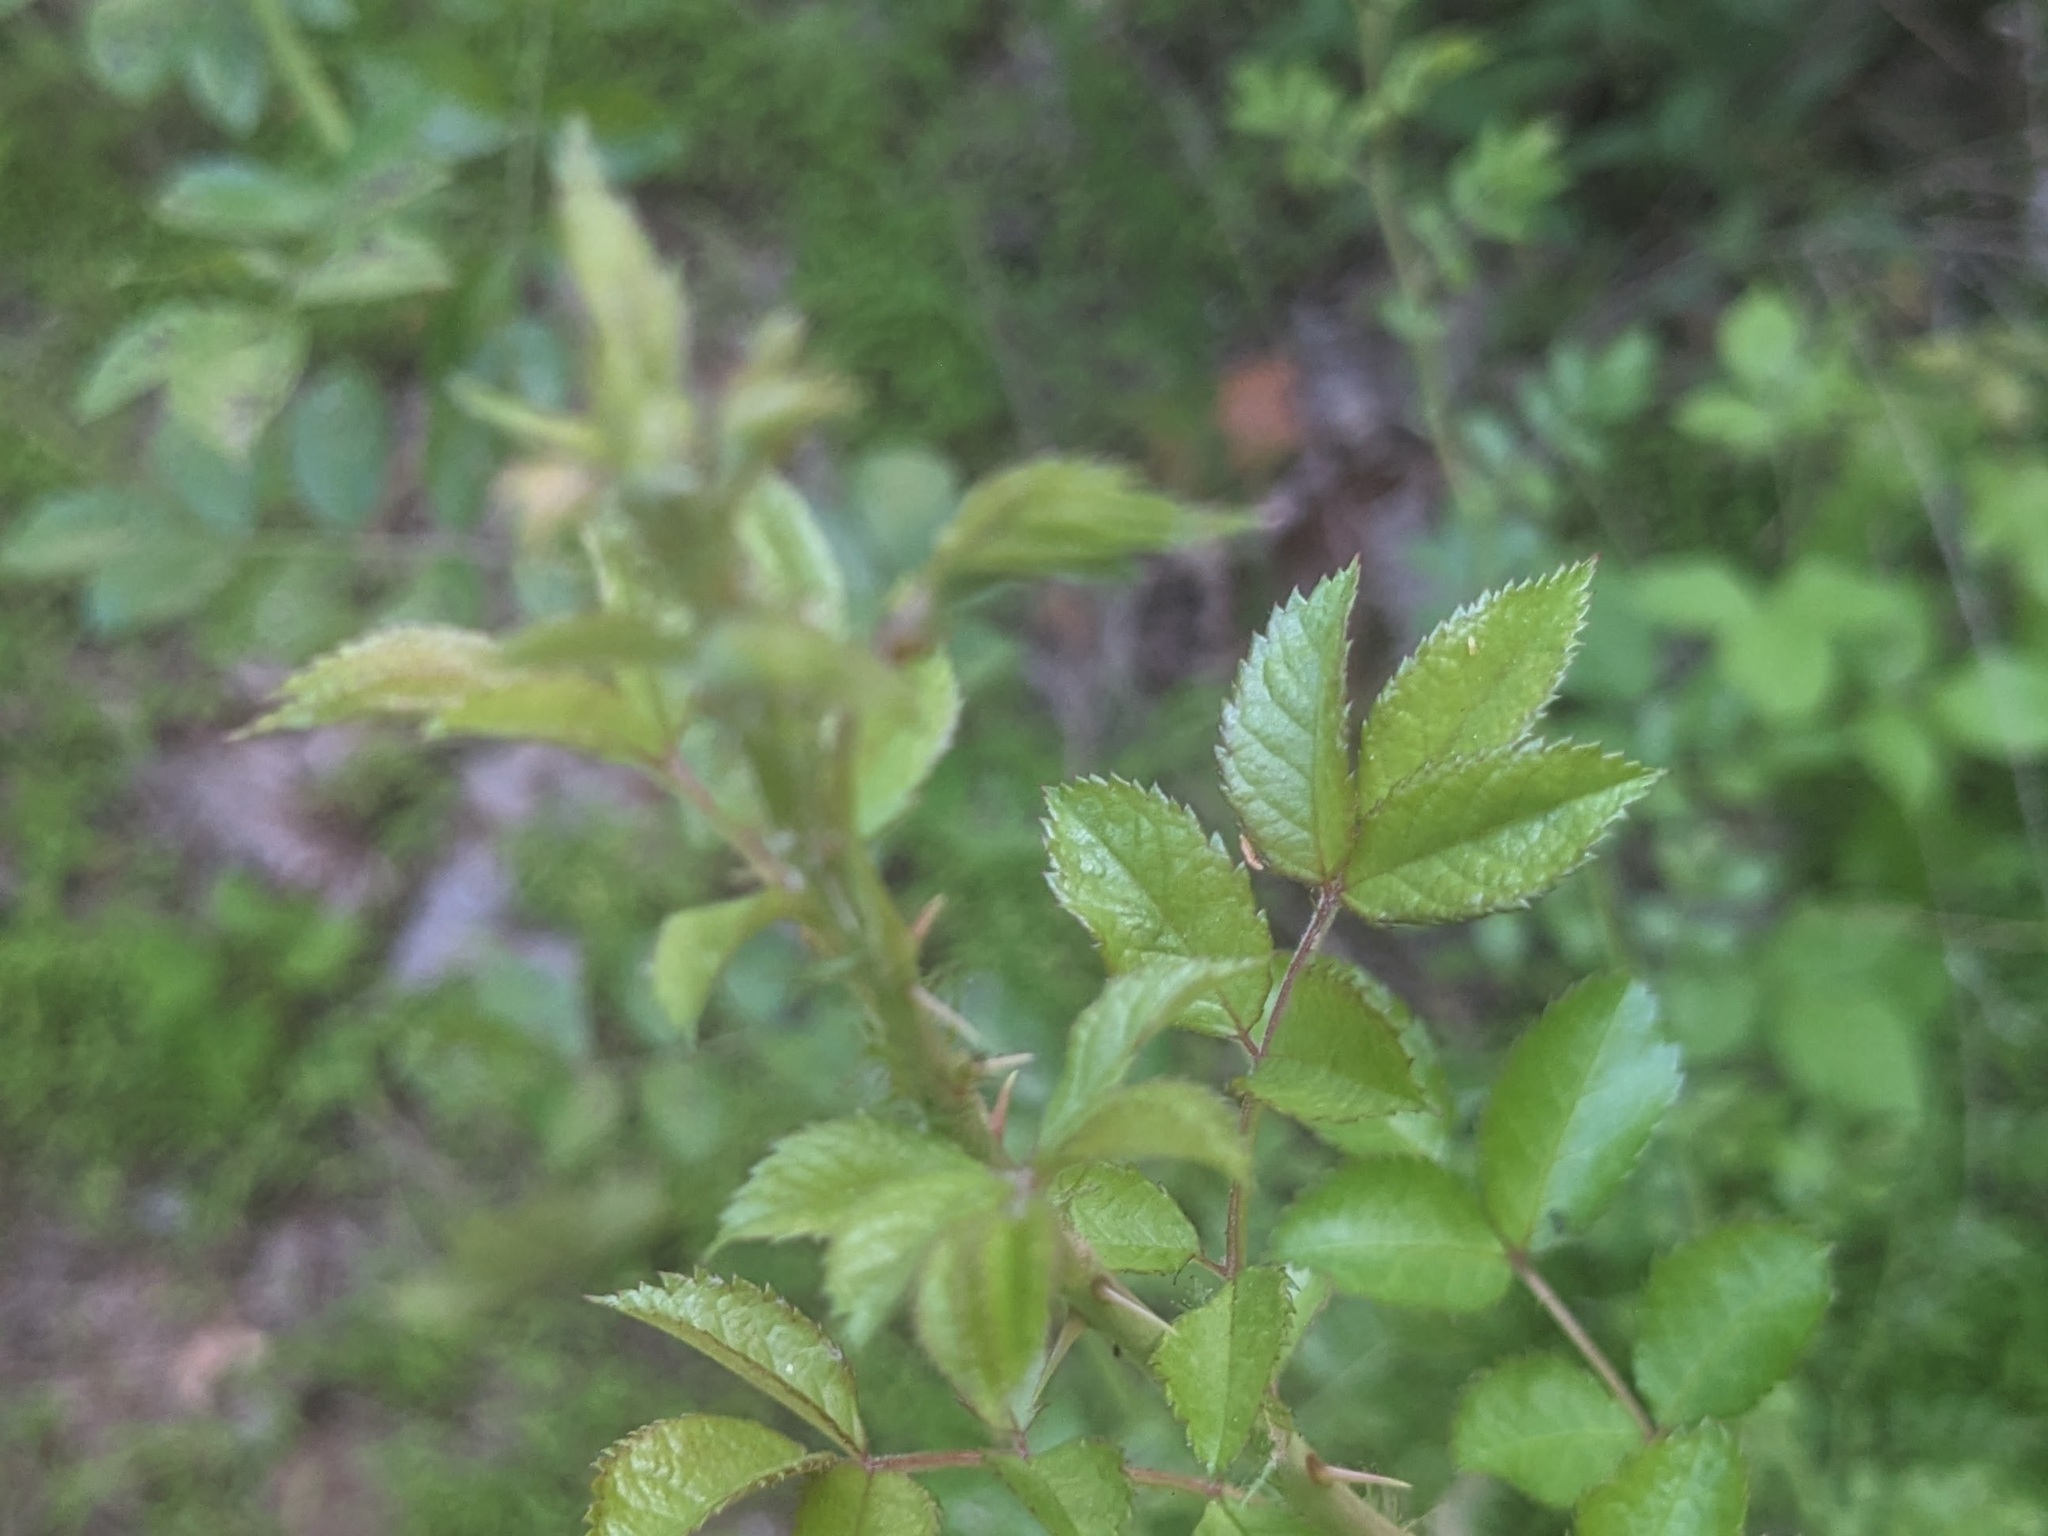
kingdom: Plantae
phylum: Tracheophyta
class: Magnoliopsida
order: Rosales
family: Rosaceae
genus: Rosa
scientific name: Rosa multiflora
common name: Multiflora rose
